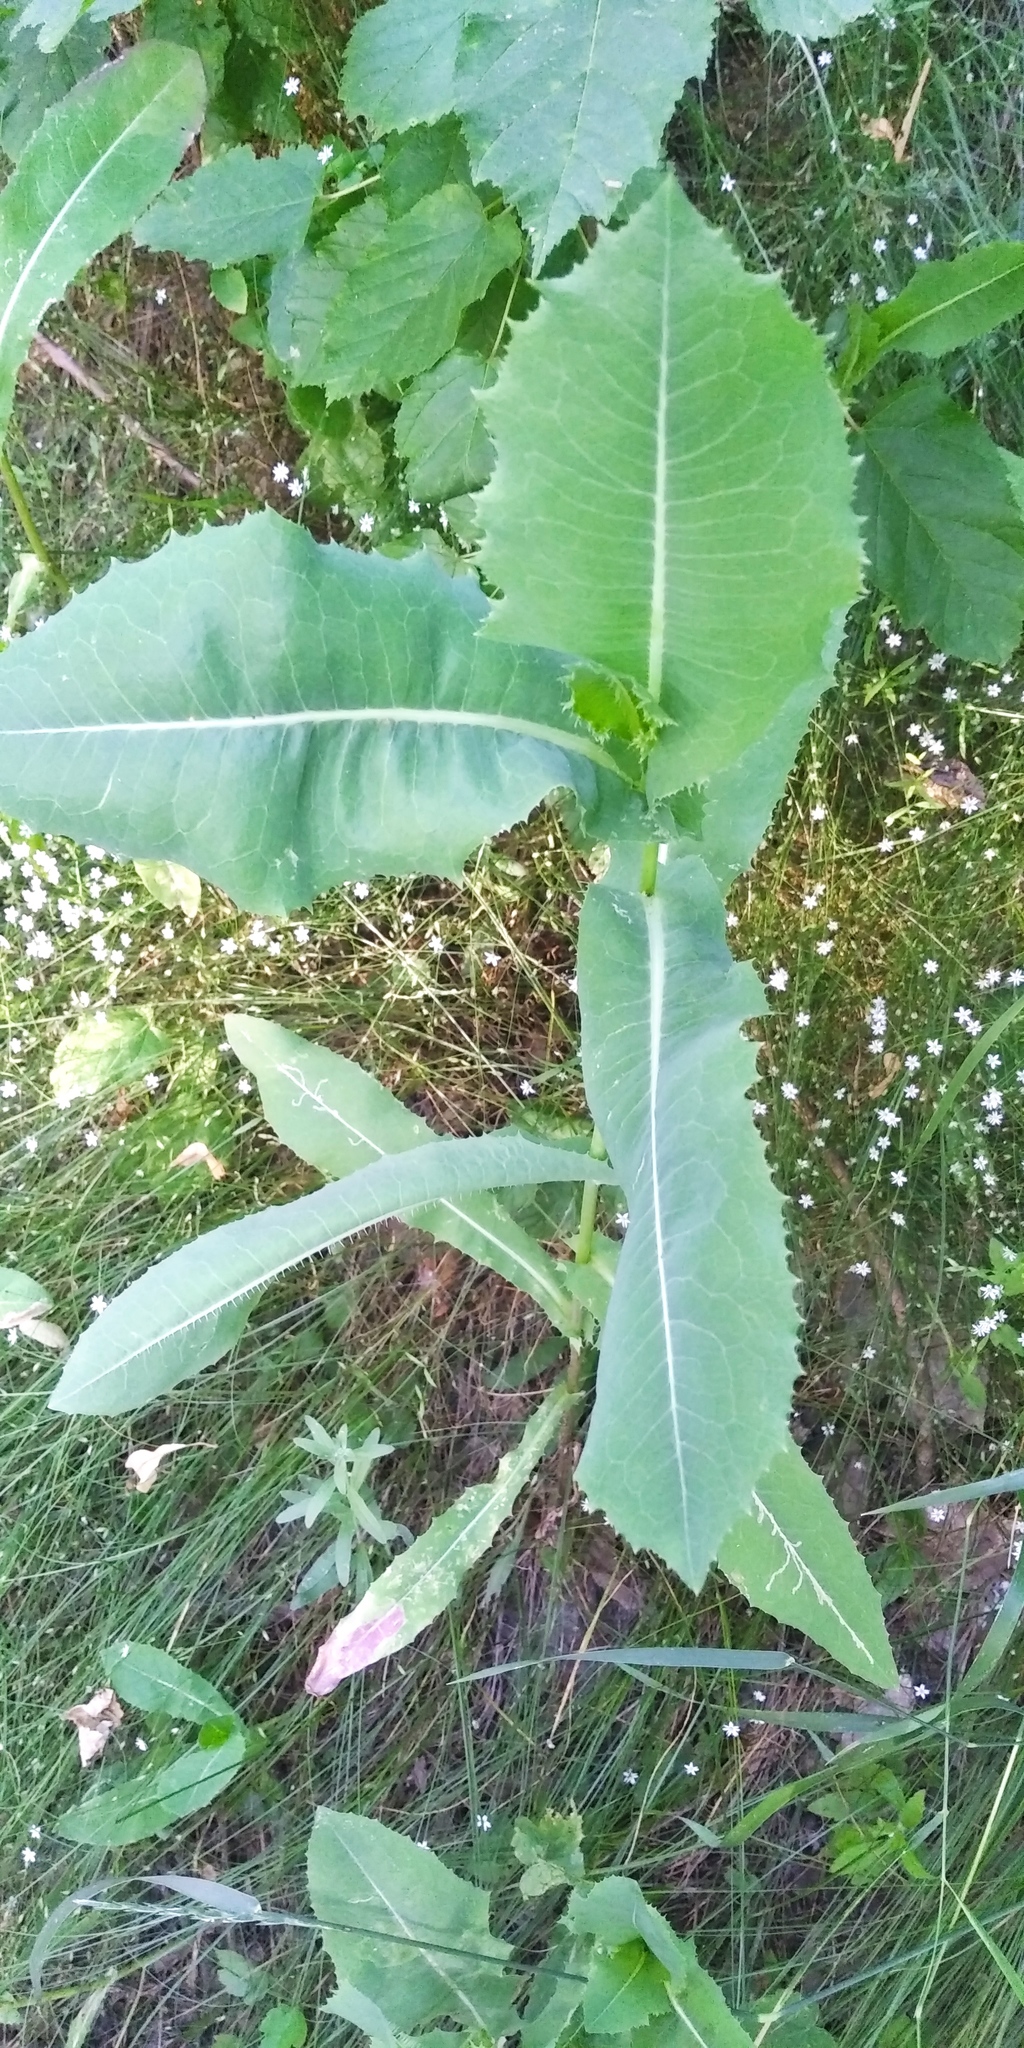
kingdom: Plantae
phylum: Tracheophyta
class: Magnoliopsida
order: Asterales
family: Asteraceae
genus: Lactuca
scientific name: Lactuca serriola
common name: Prickly lettuce
